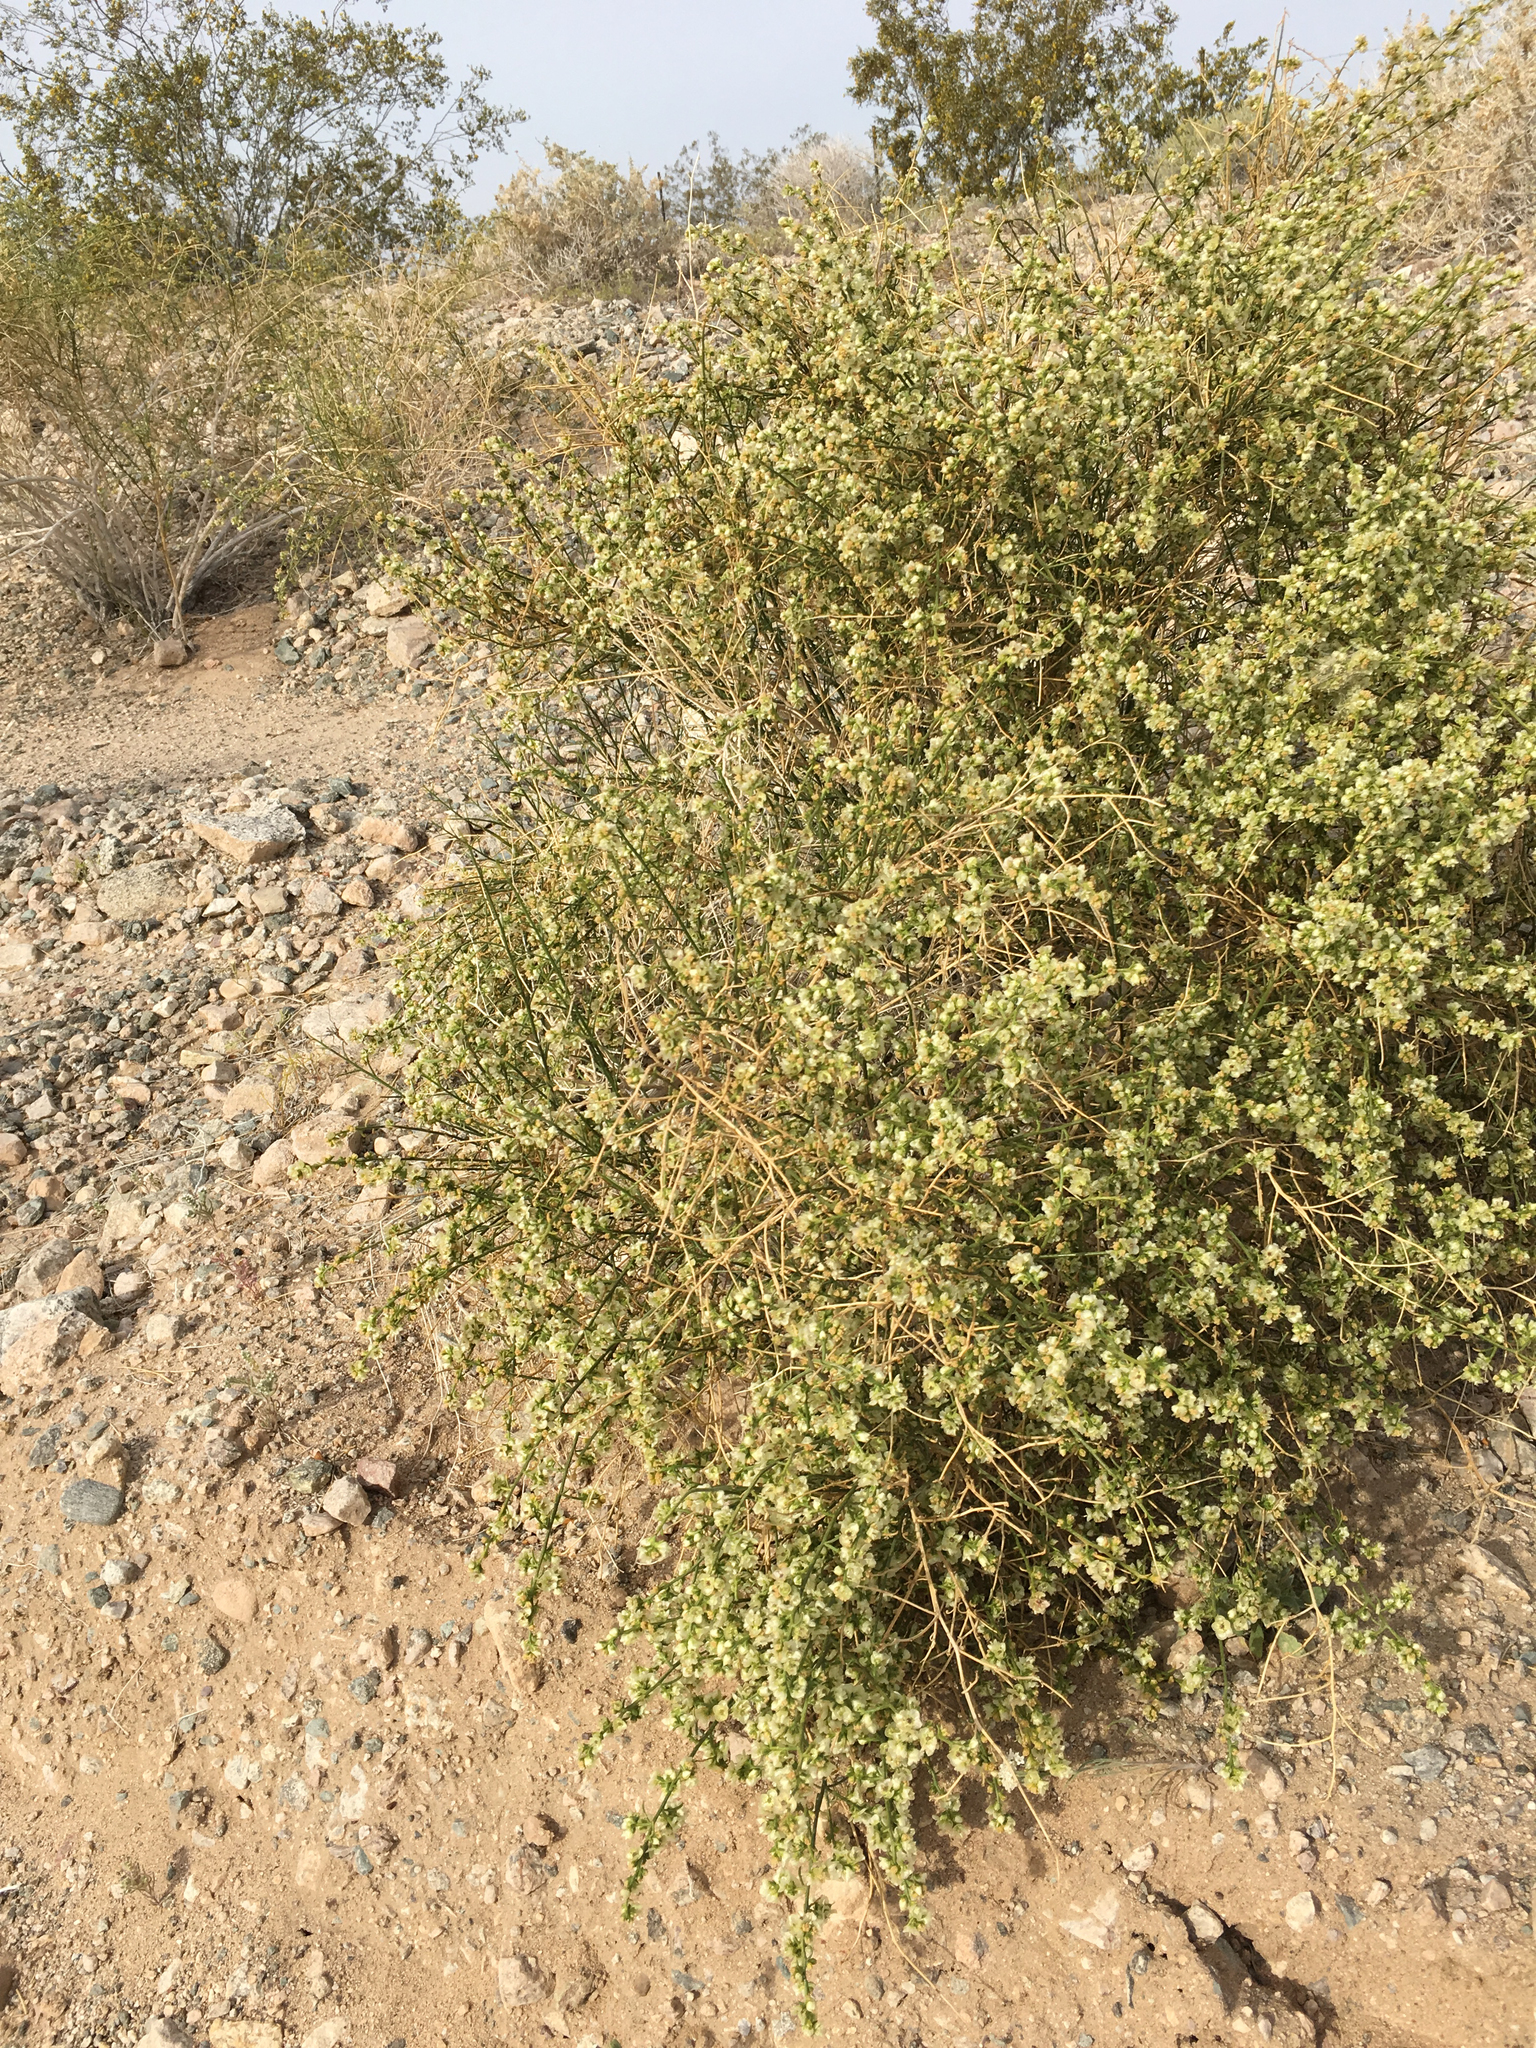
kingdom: Plantae
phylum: Tracheophyta
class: Magnoliopsida
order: Asterales
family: Asteraceae
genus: Ambrosia
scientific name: Ambrosia salsola
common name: Burrobrush
